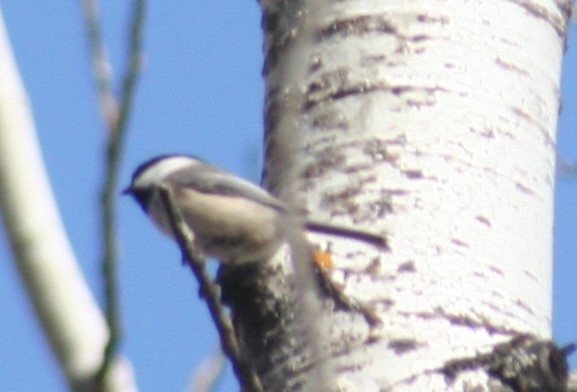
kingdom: Animalia
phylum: Chordata
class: Aves
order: Passeriformes
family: Paridae
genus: Poecile
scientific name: Poecile atricapillus
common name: Black-capped chickadee
